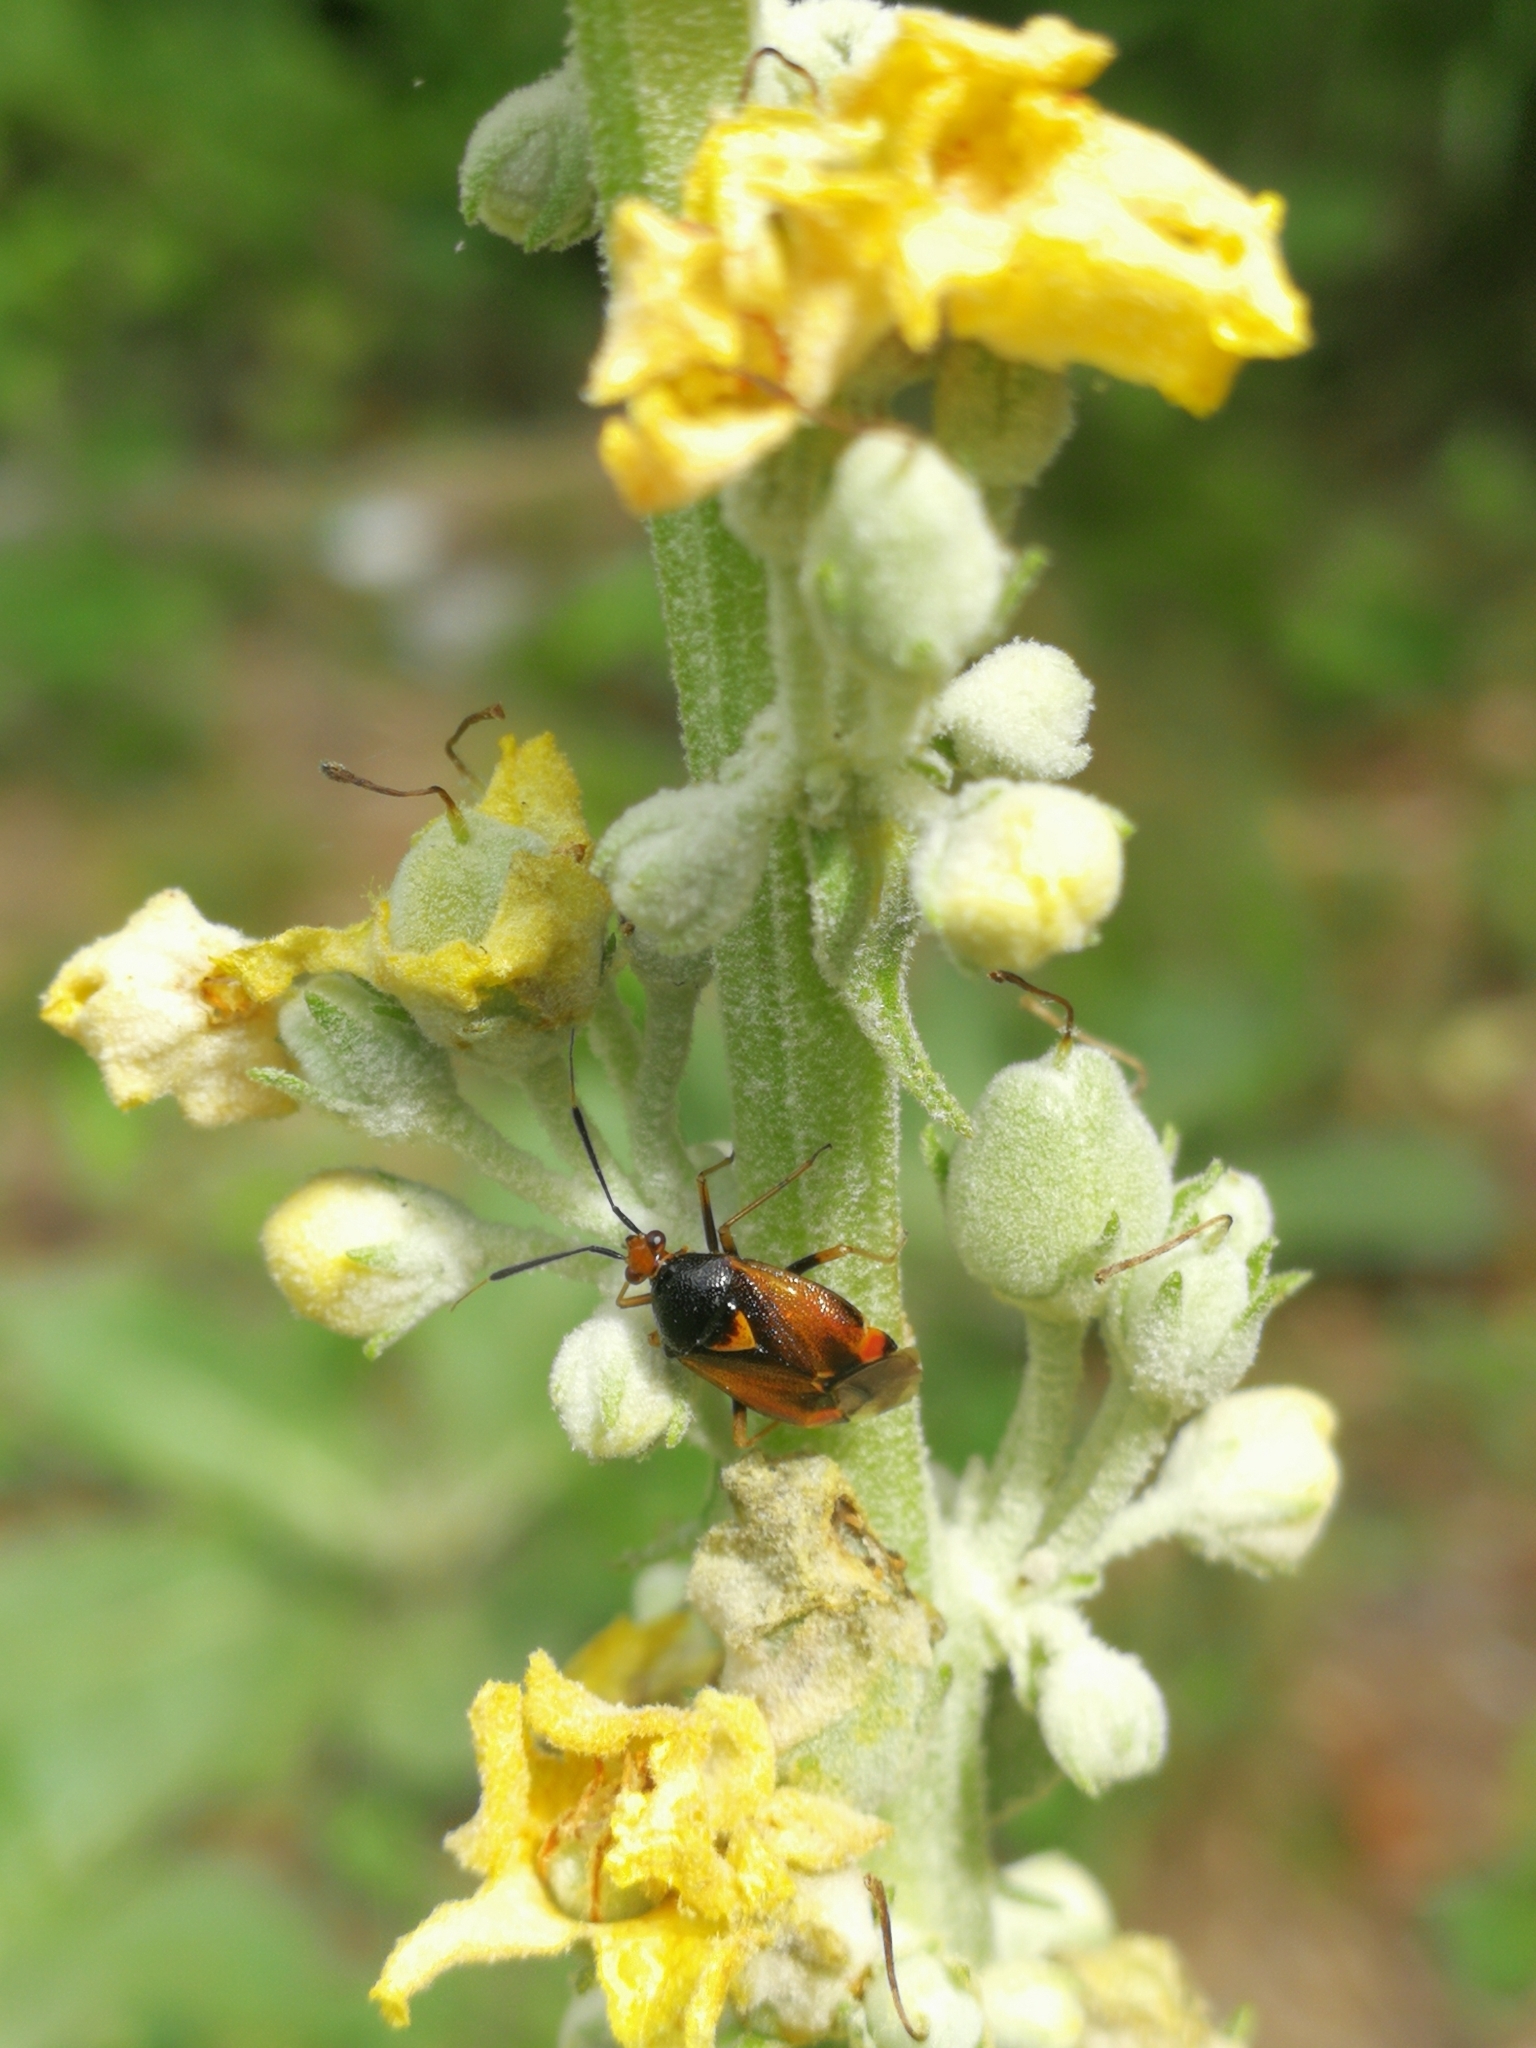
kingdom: Animalia
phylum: Arthropoda
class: Insecta
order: Hemiptera
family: Miridae
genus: Deraeocoris
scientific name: Deraeocoris ruber
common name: Plant bug
